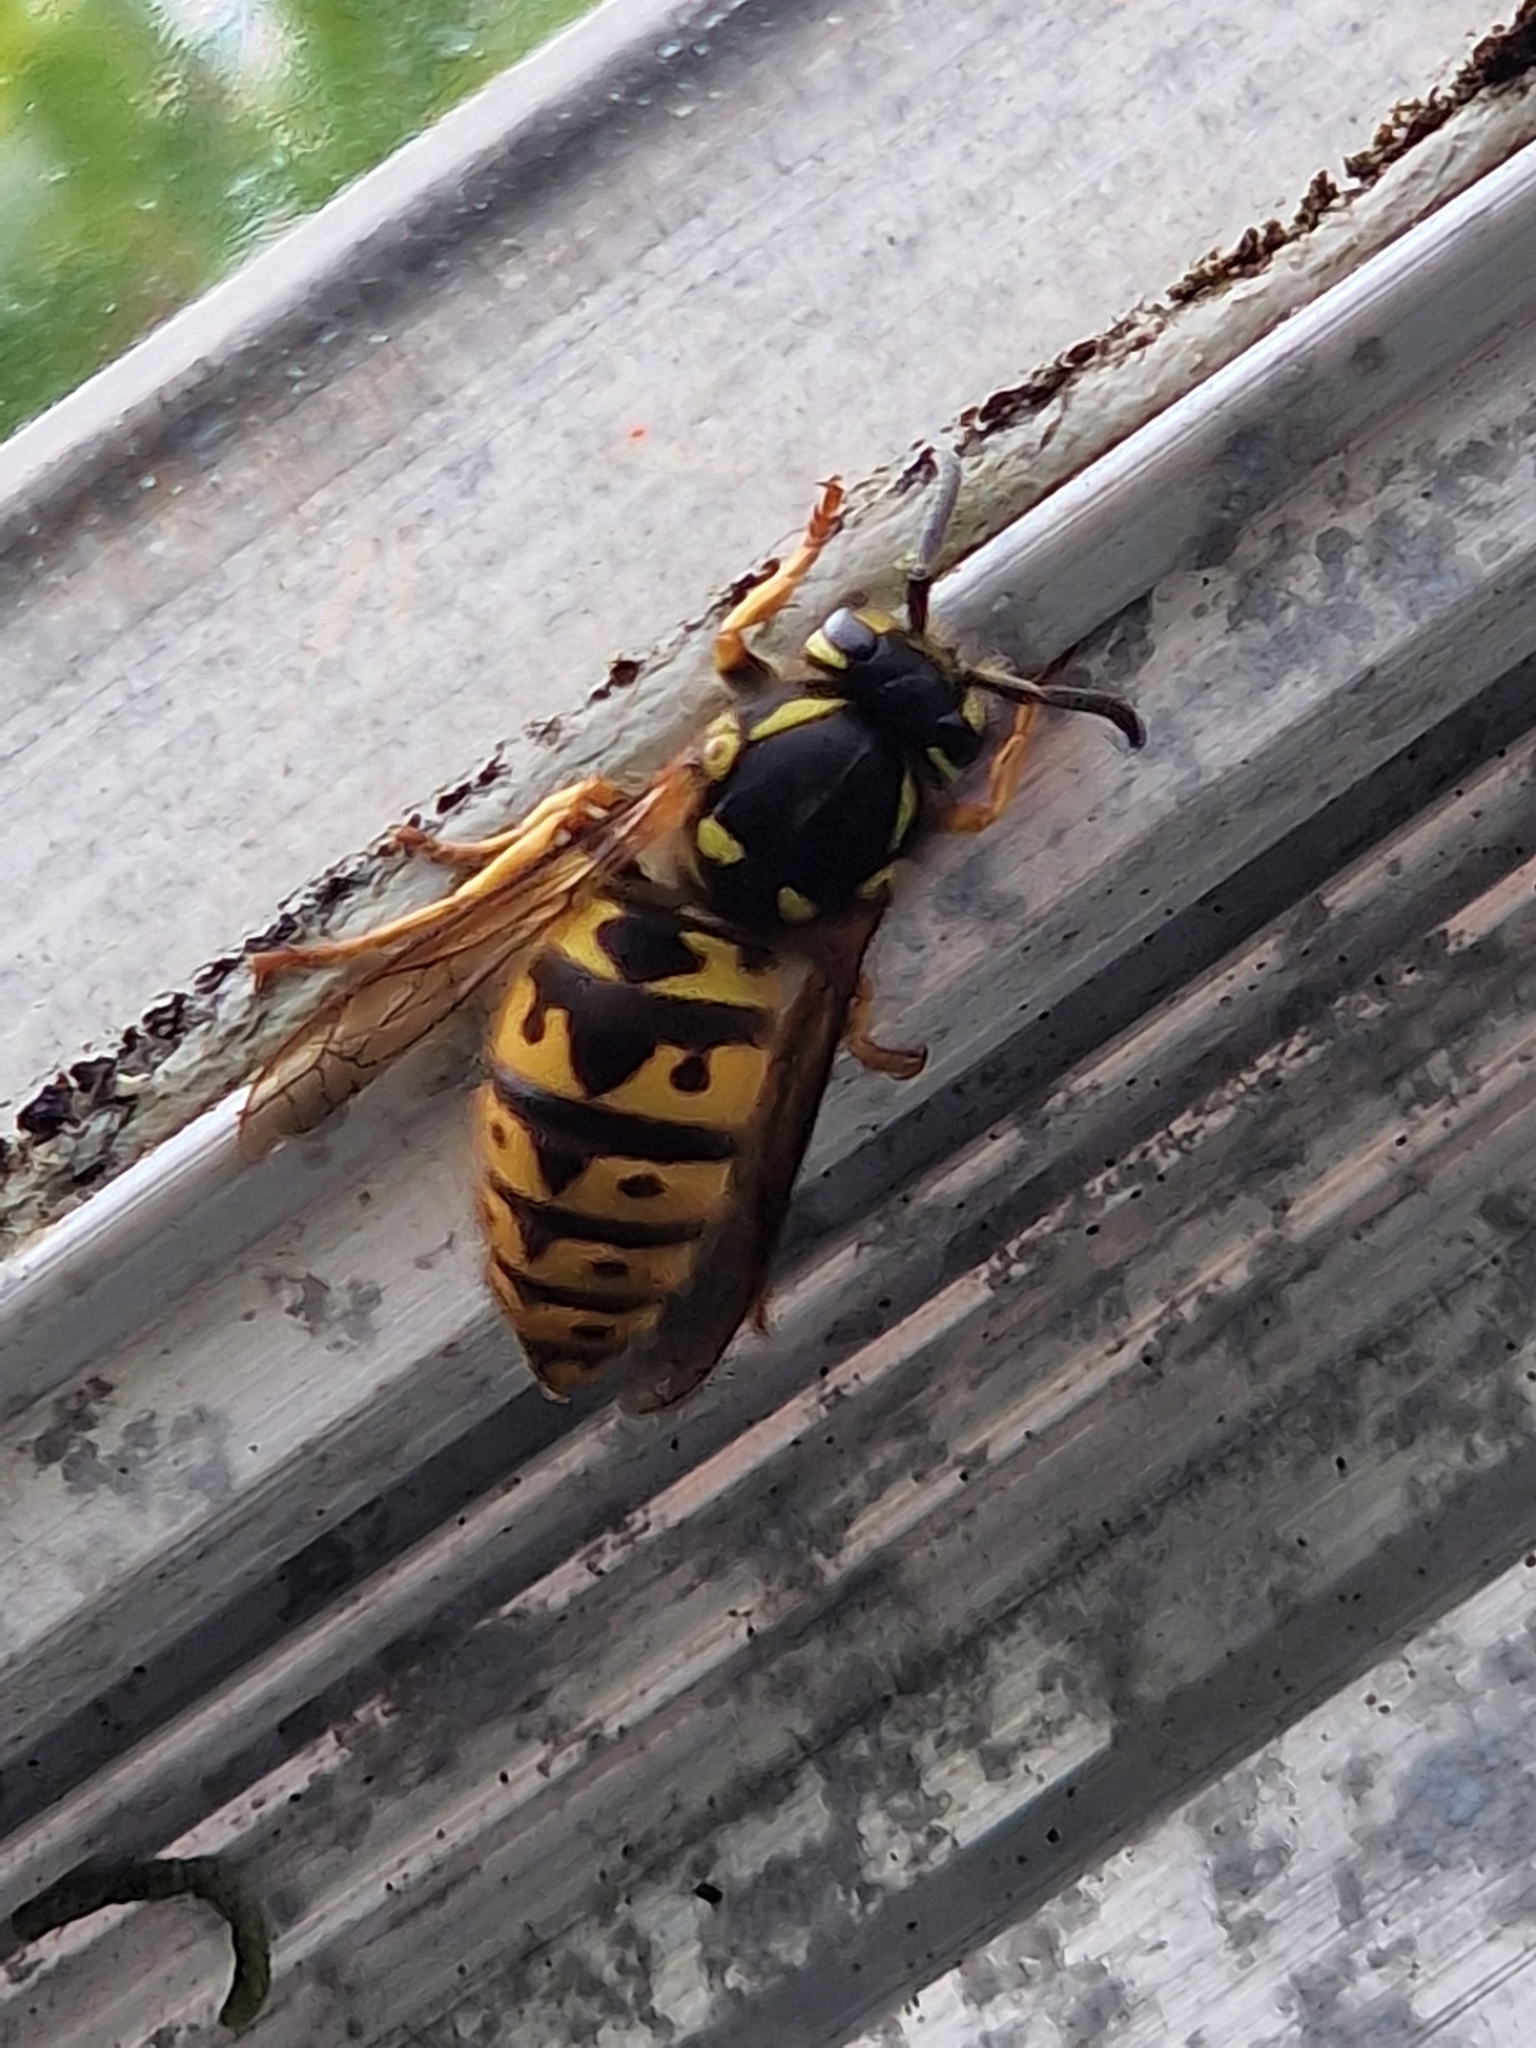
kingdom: Animalia
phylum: Arthropoda
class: Insecta
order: Hymenoptera
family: Vespidae
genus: Vespula
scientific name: Vespula germanica
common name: German wasp
